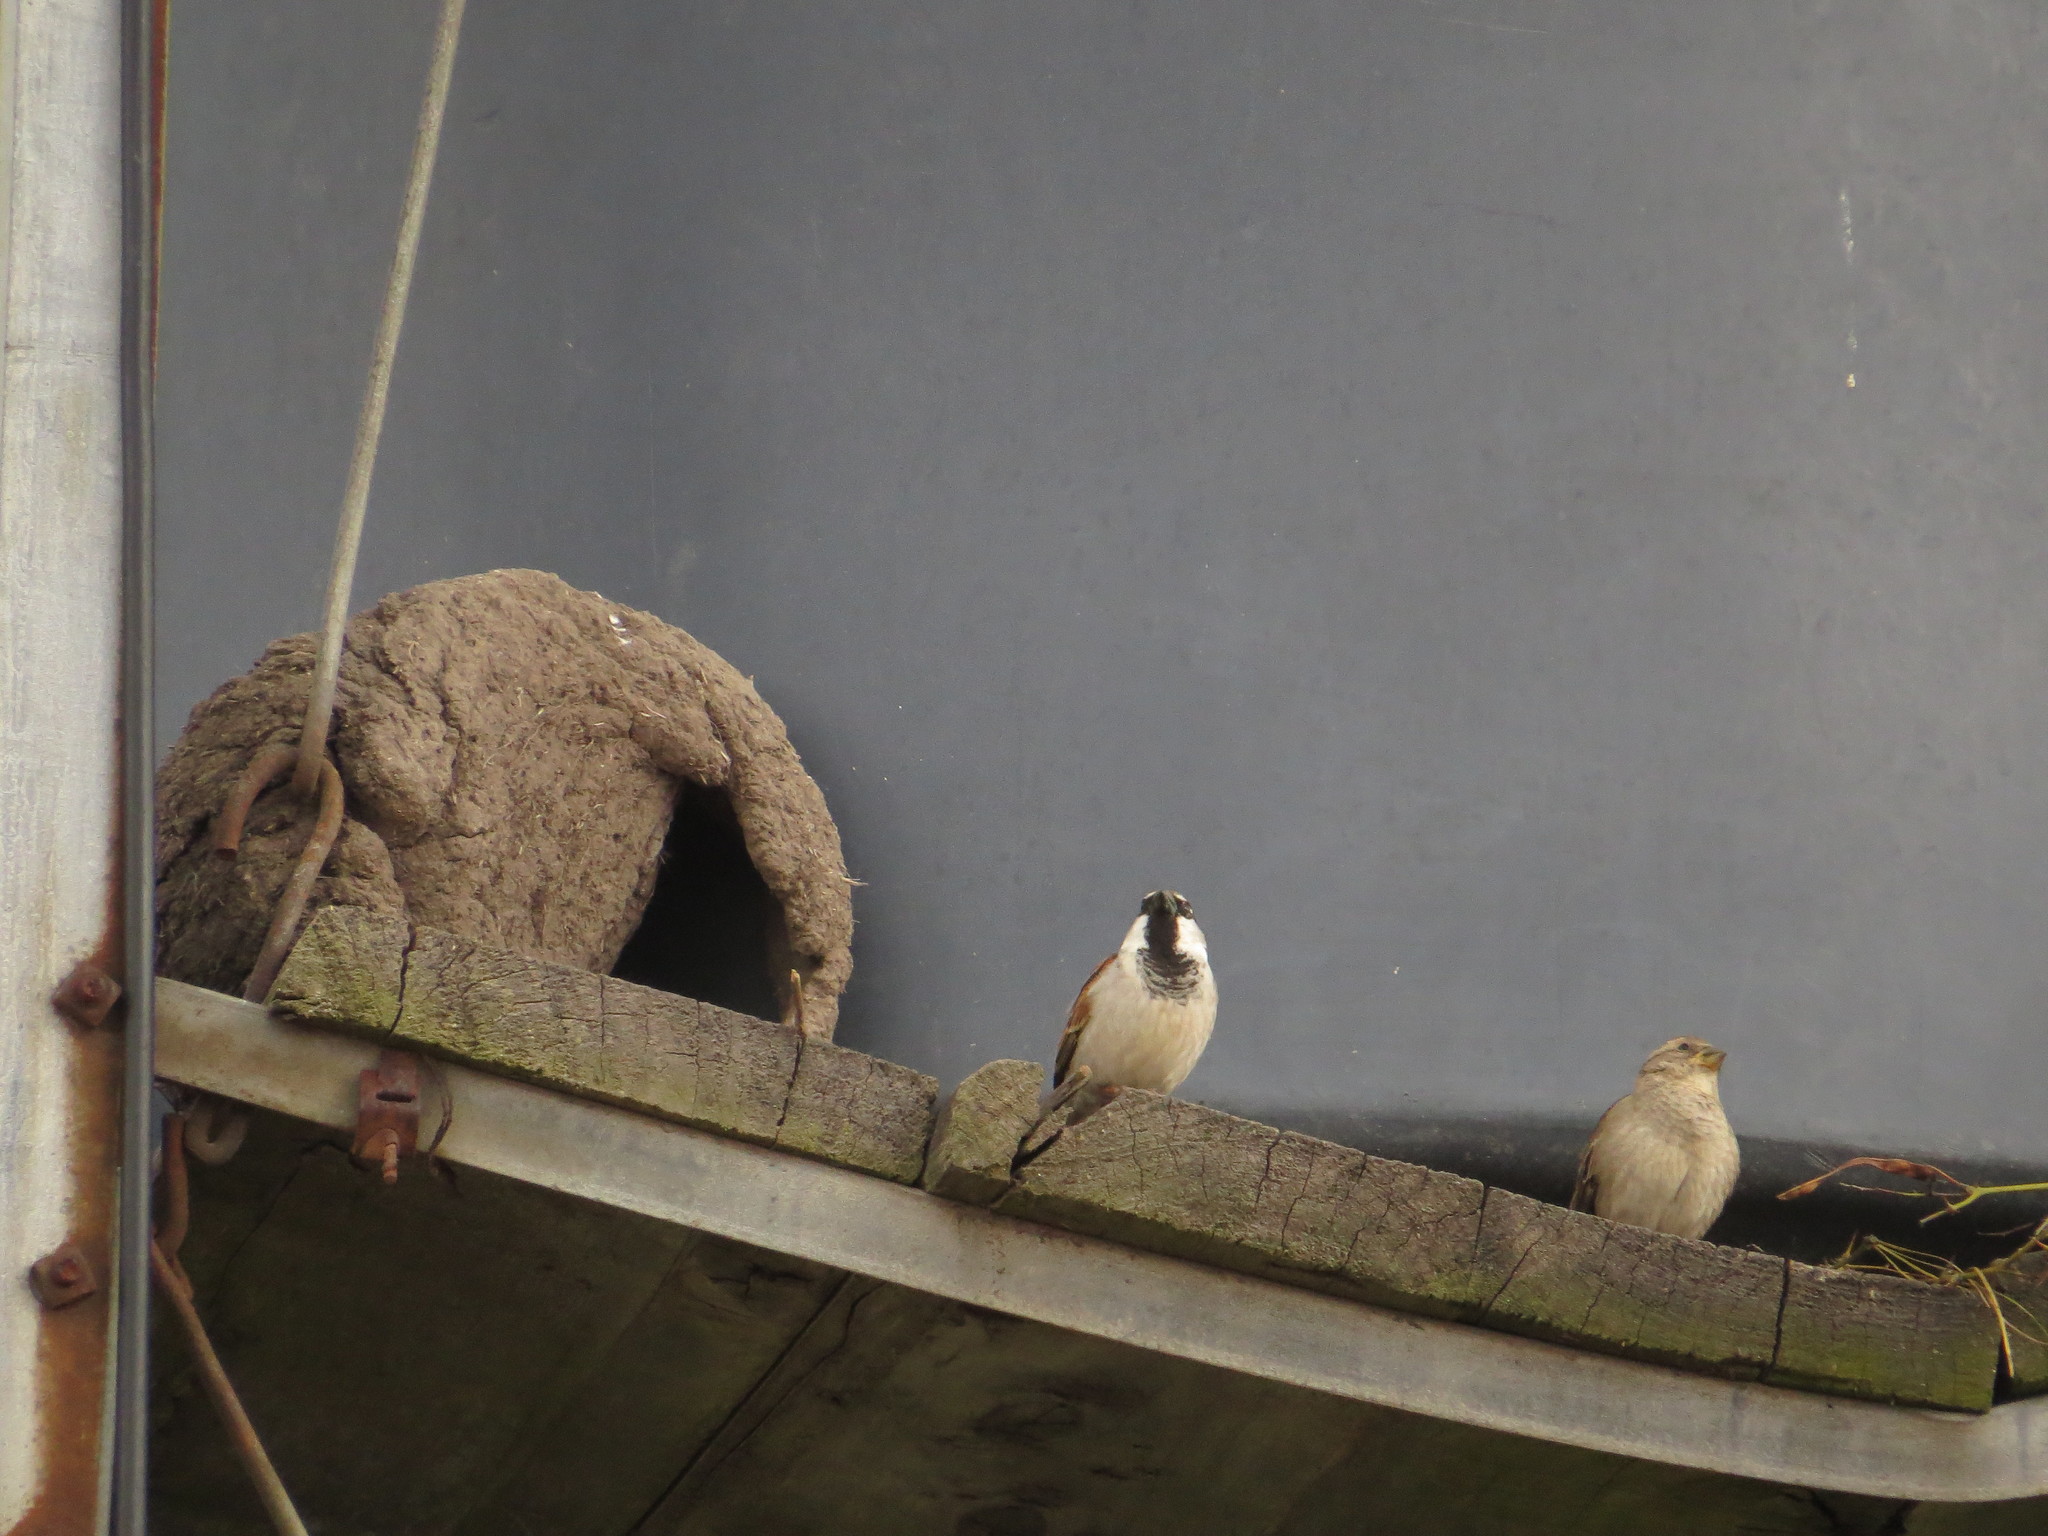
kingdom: Animalia
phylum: Chordata
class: Aves
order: Passeriformes
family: Passeridae
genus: Passer
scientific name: Passer domesticus
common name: House sparrow
